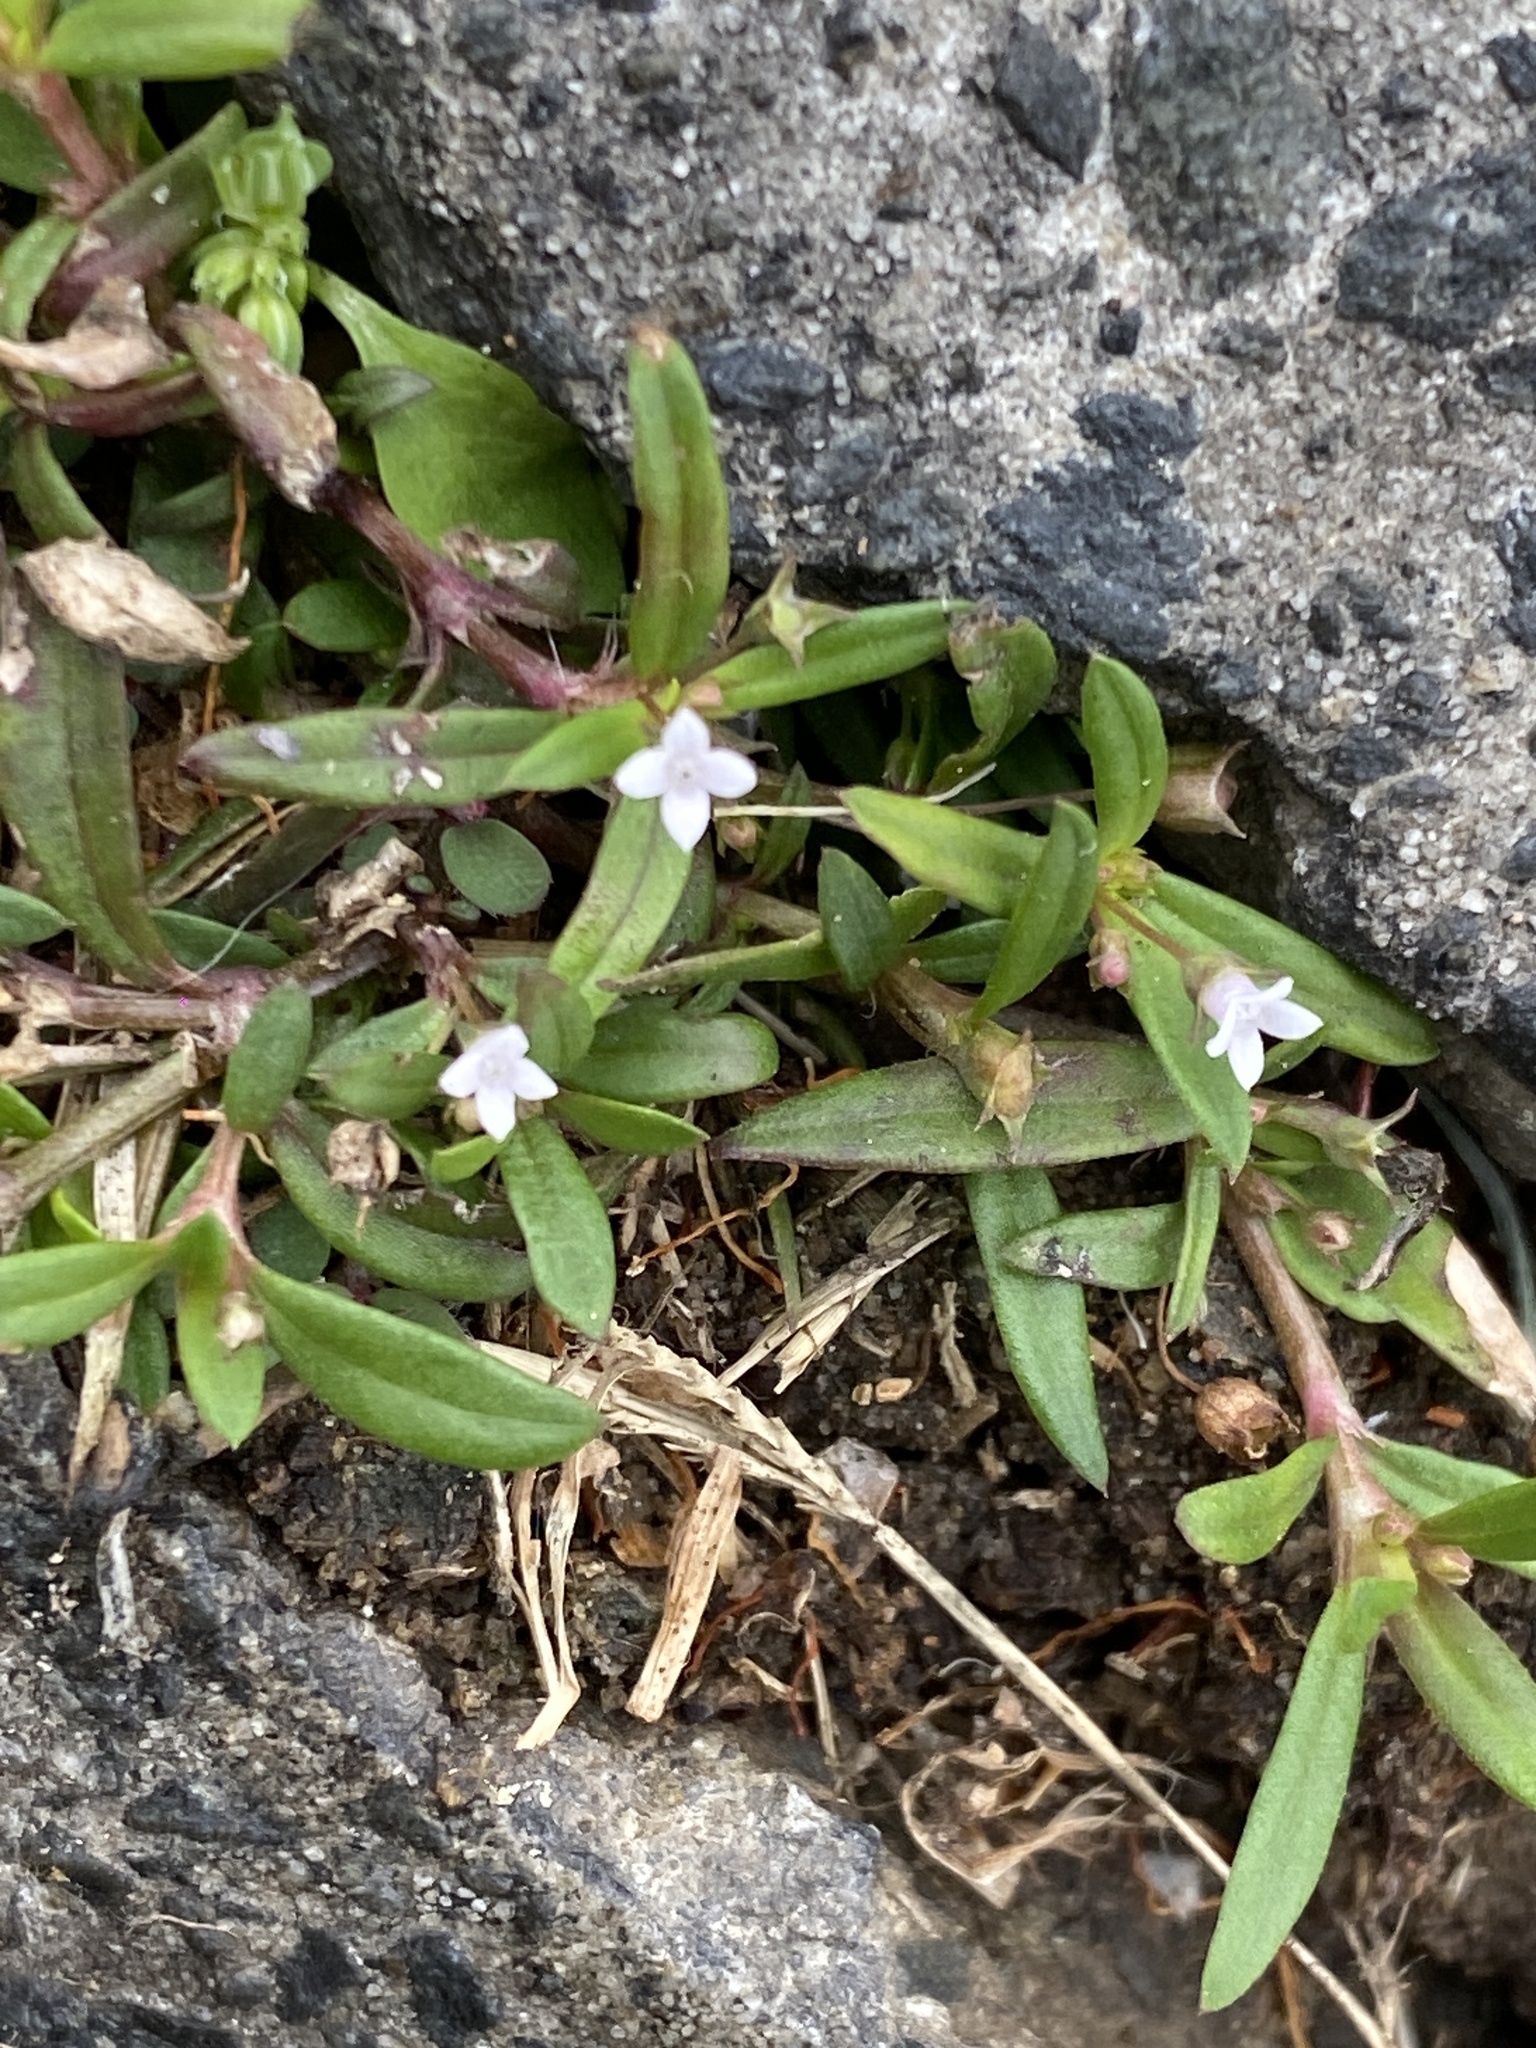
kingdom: Plantae
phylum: Tracheophyta
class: Magnoliopsida
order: Gentianales
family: Rubiaceae
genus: Oldenlandia
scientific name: Oldenlandia corymbosa
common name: Flat-top mille graines
